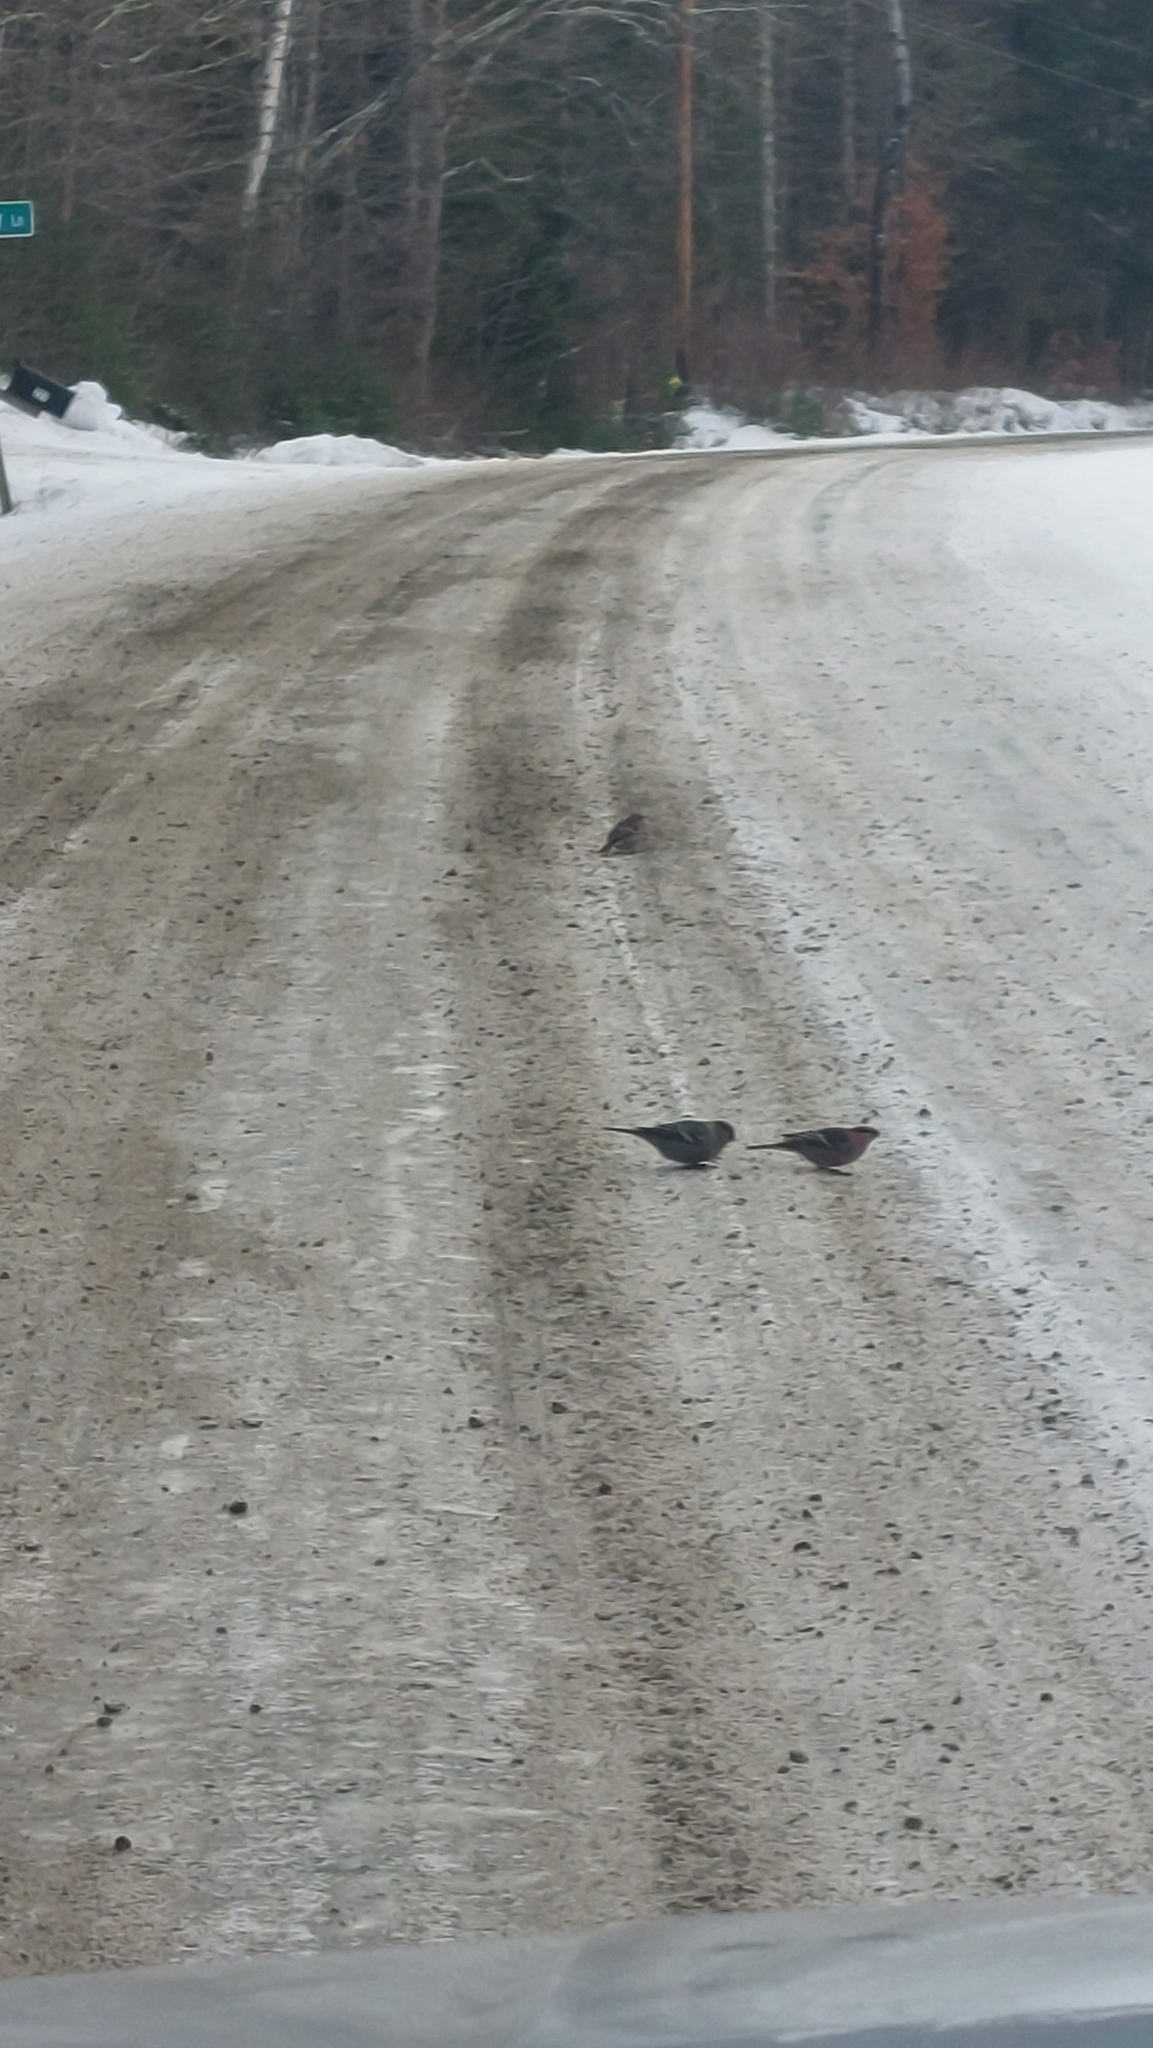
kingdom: Animalia
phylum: Chordata
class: Aves
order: Passeriformes
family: Fringillidae
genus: Pinicola
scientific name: Pinicola enucleator
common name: Pine grosbeak
